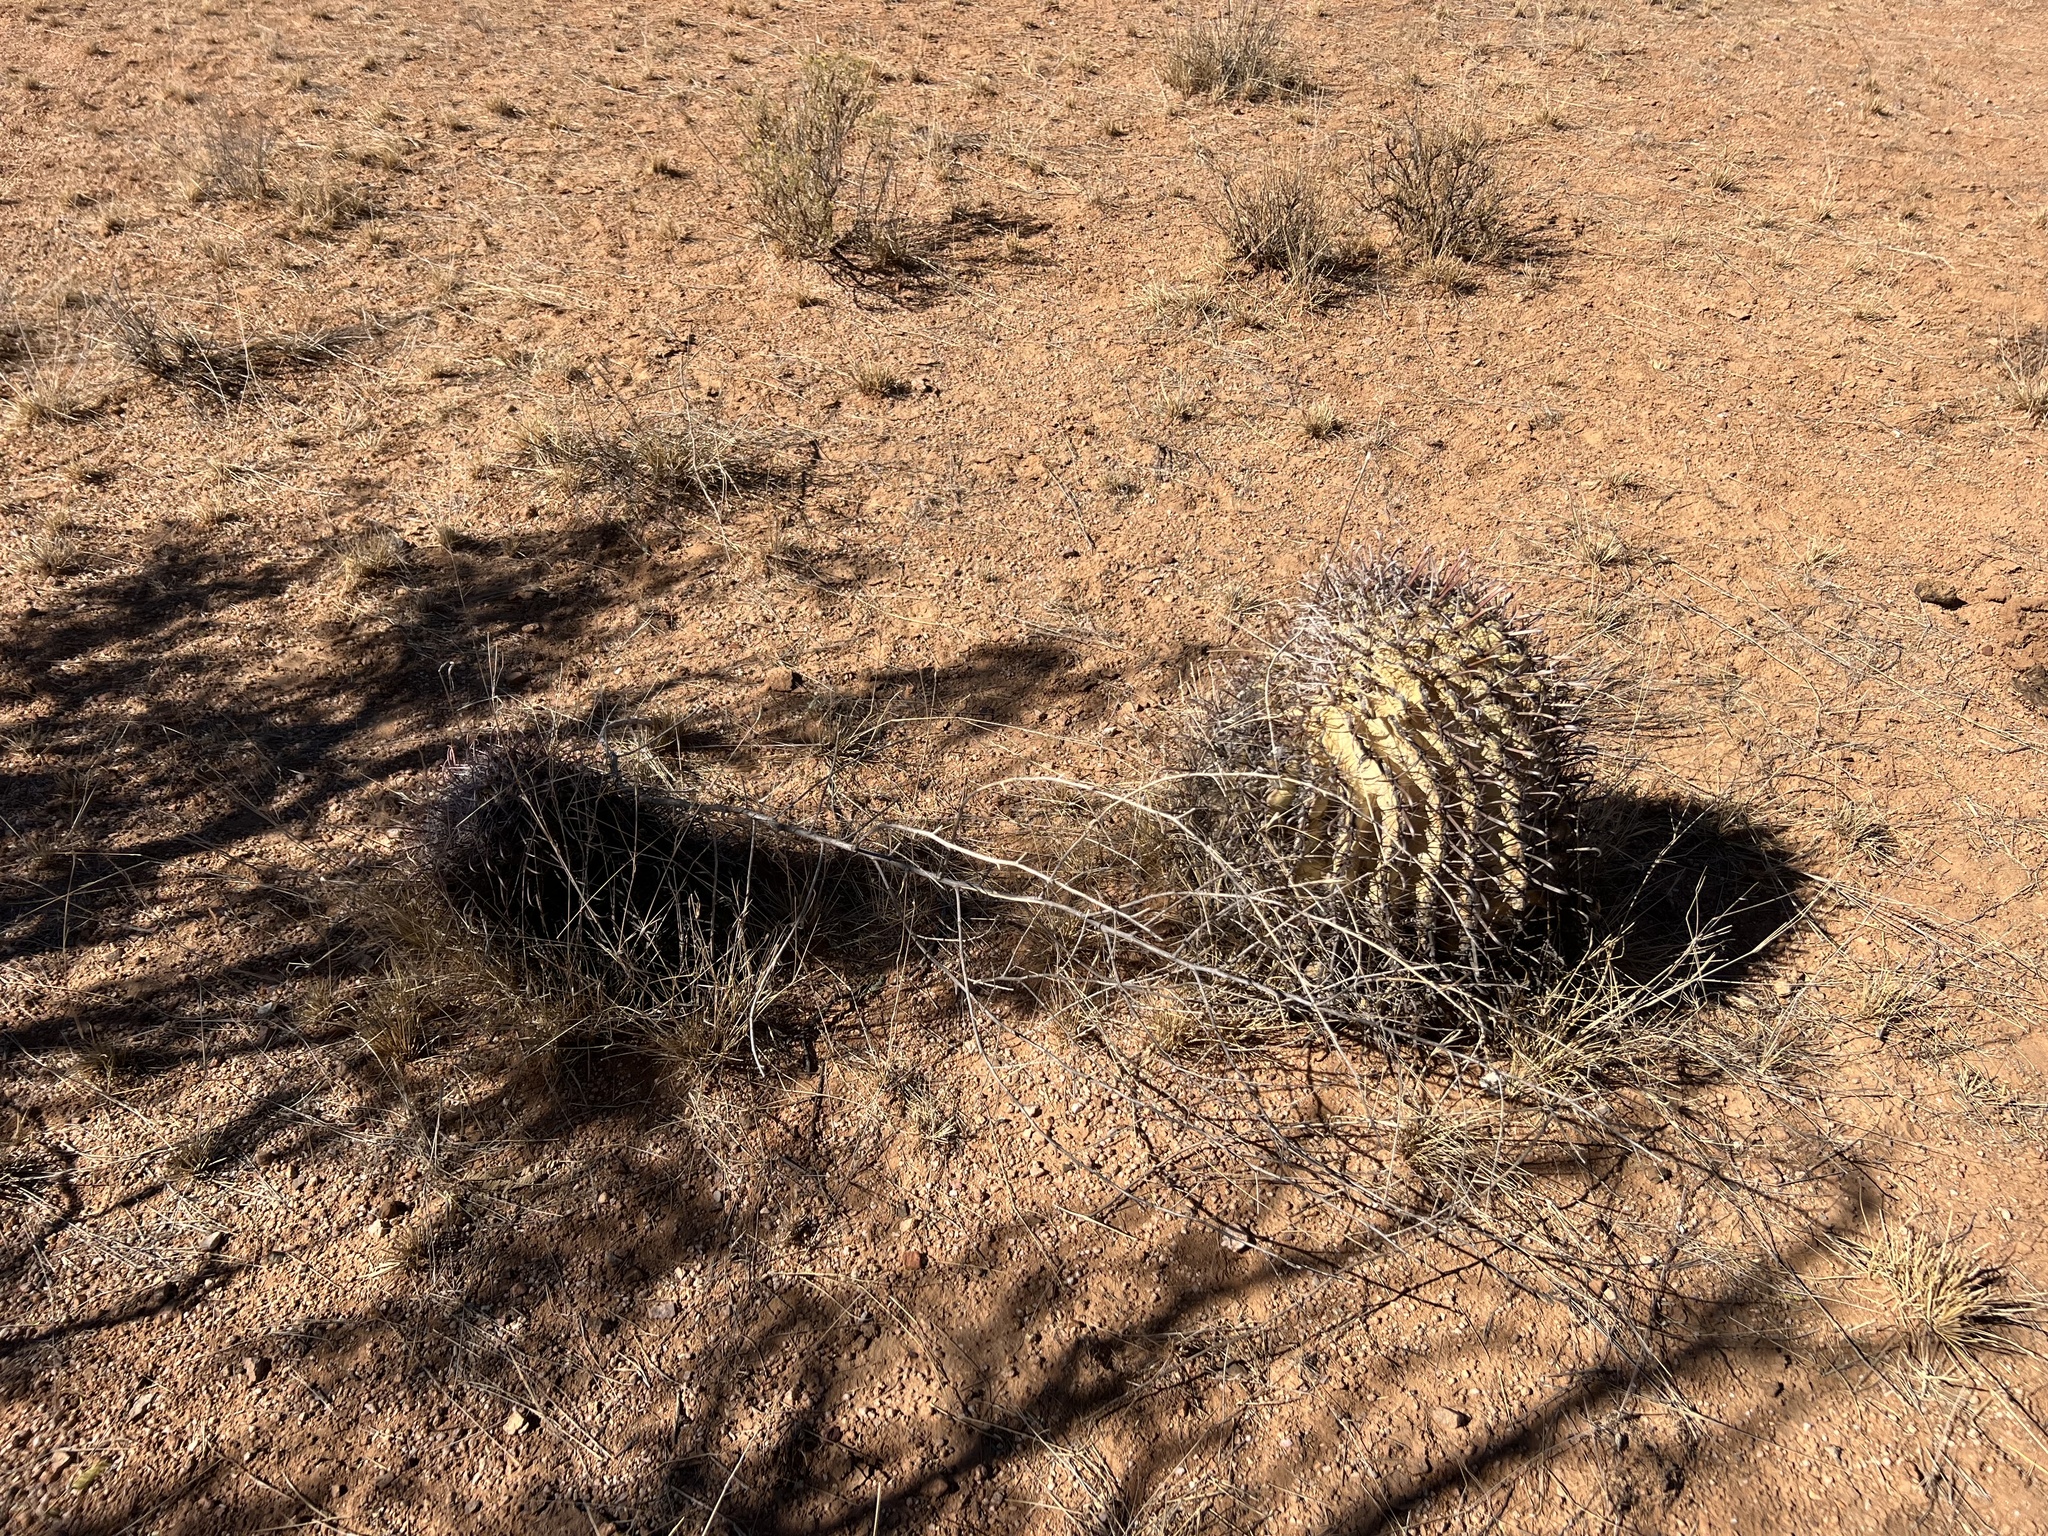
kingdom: Plantae
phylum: Tracheophyta
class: Magnoliopsida
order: Caryophyllales
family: Cactaceae
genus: Ferocactus
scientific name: Ferocactus wislizeni
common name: Candy barrel cactus
